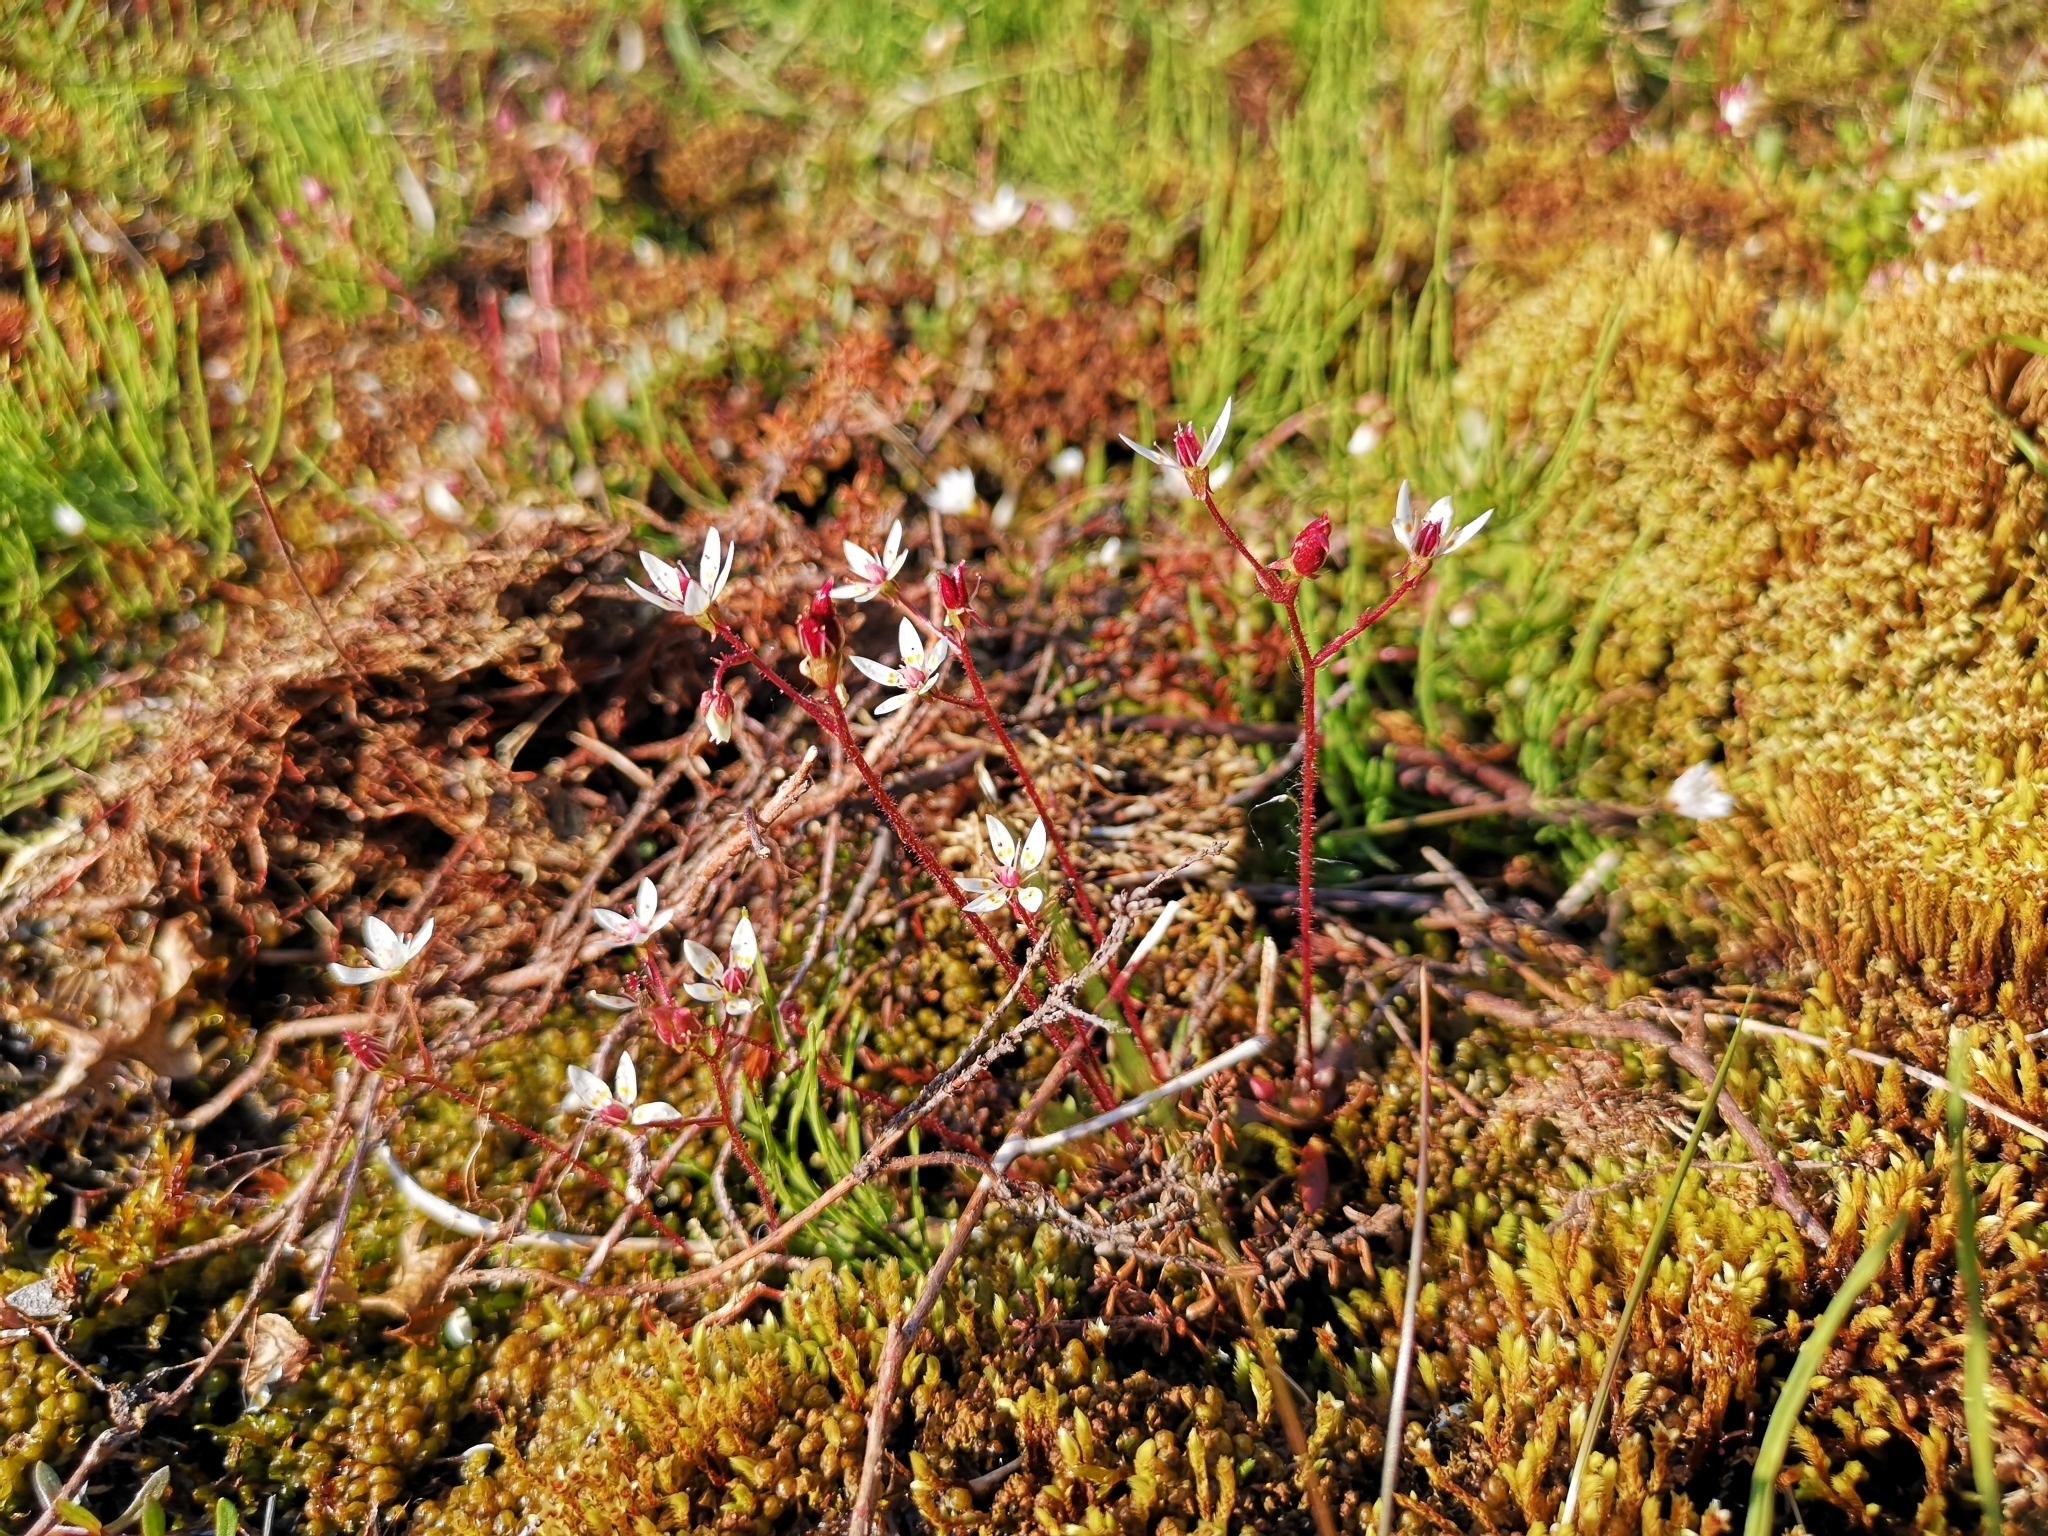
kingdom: Plantae
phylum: Tracheophyta
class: Magnoliopsida
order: Saxifragales
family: Saxifragaceae
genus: Micranthes
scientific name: Micranthes stellaris
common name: Starry saxifrage
